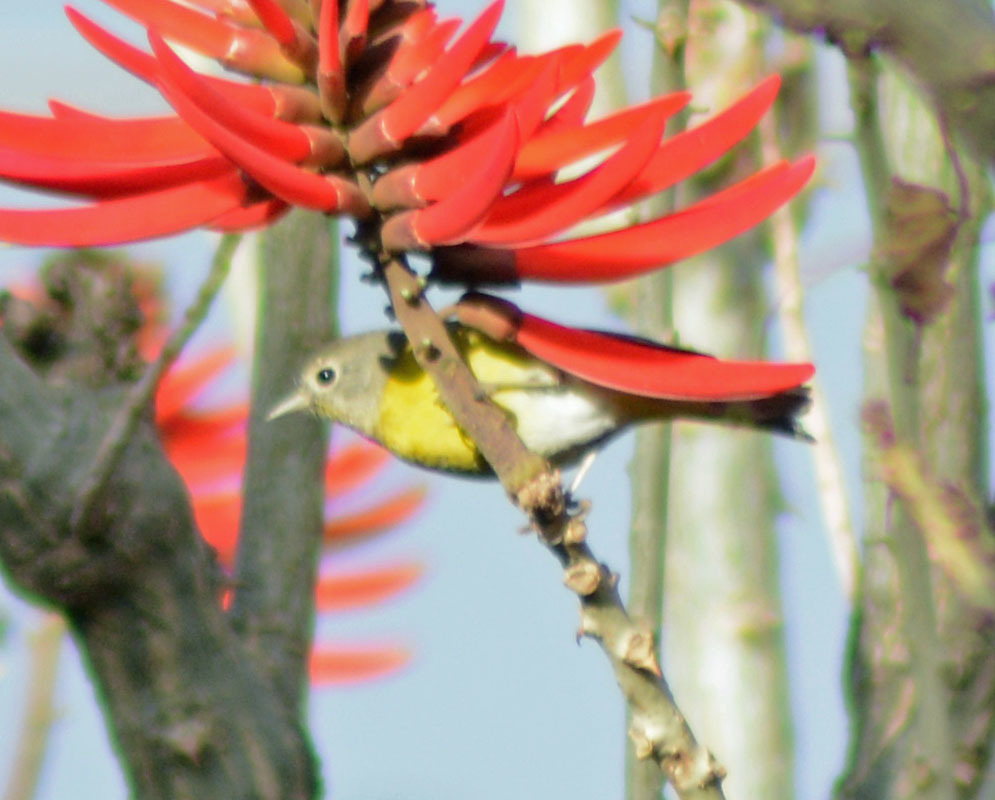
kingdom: Animalia
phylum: Chordata
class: Aves
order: Passeriformes
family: Parulidae
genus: Leiothlypis
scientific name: Leiothlypis ruficapilla
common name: Nashville warbler
